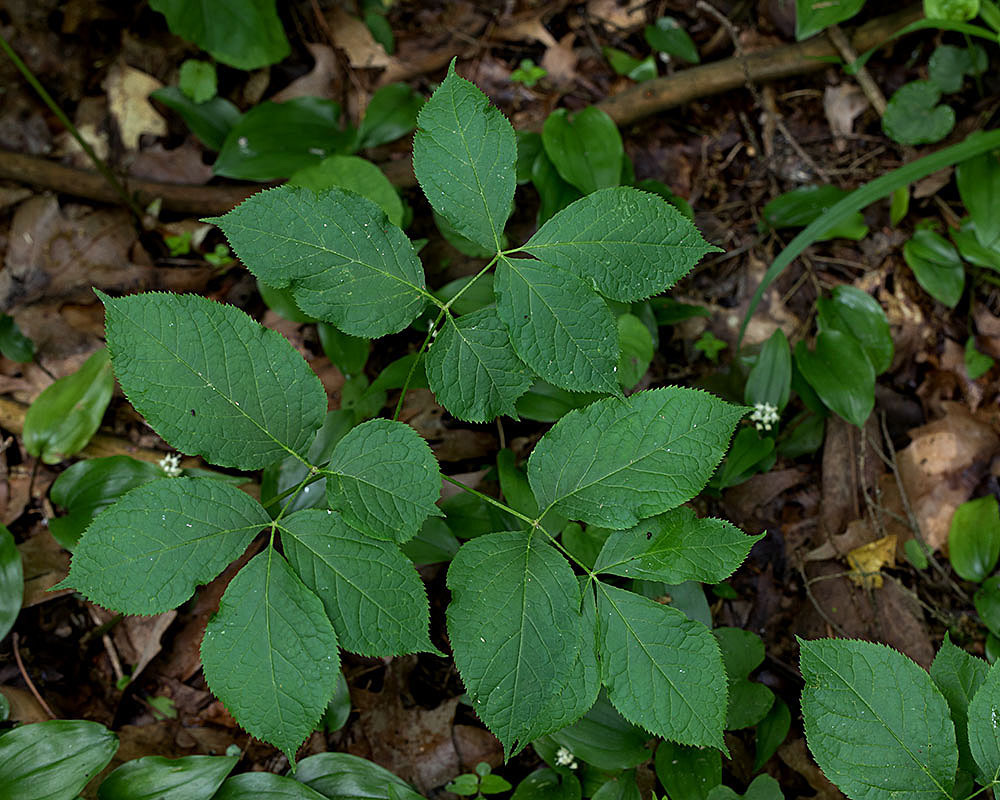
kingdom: Plantae
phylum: Tracheophyta
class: Magnoliopsida
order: Apiales
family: Araliaceae
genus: Aralia
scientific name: Aralia nudicaulis
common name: Wild sarsaparilla
